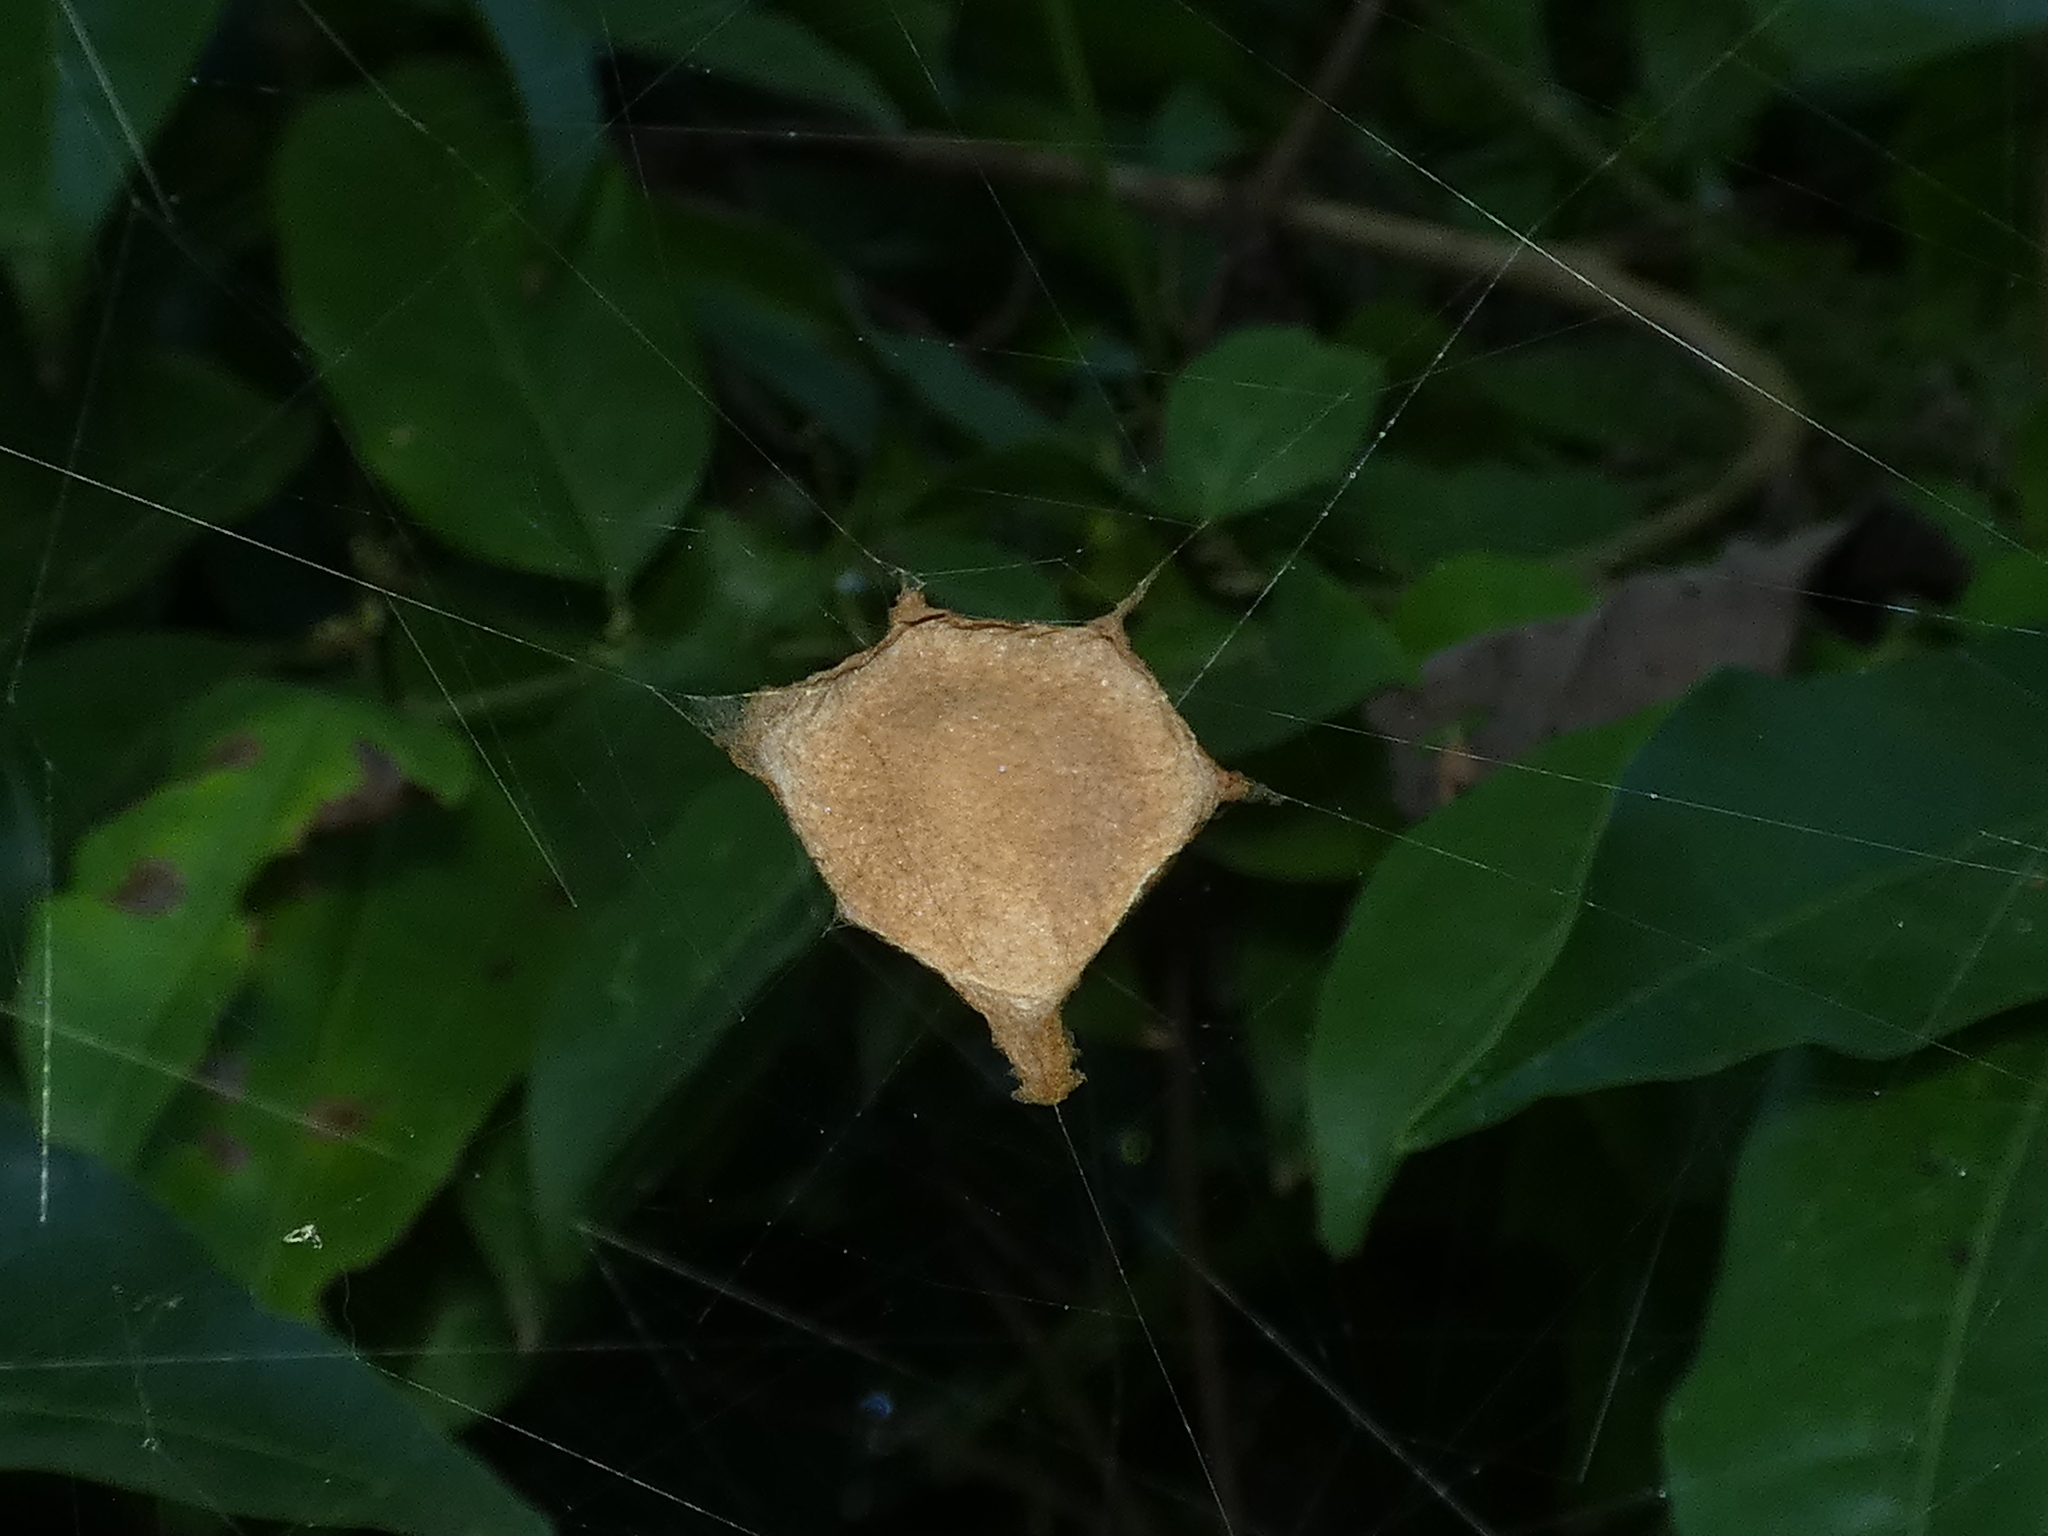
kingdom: Animalia
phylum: Arthropoda
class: Arachnida
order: Araneae
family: Araneidae
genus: Argiope
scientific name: Argiope argentata
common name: Orb weavers
